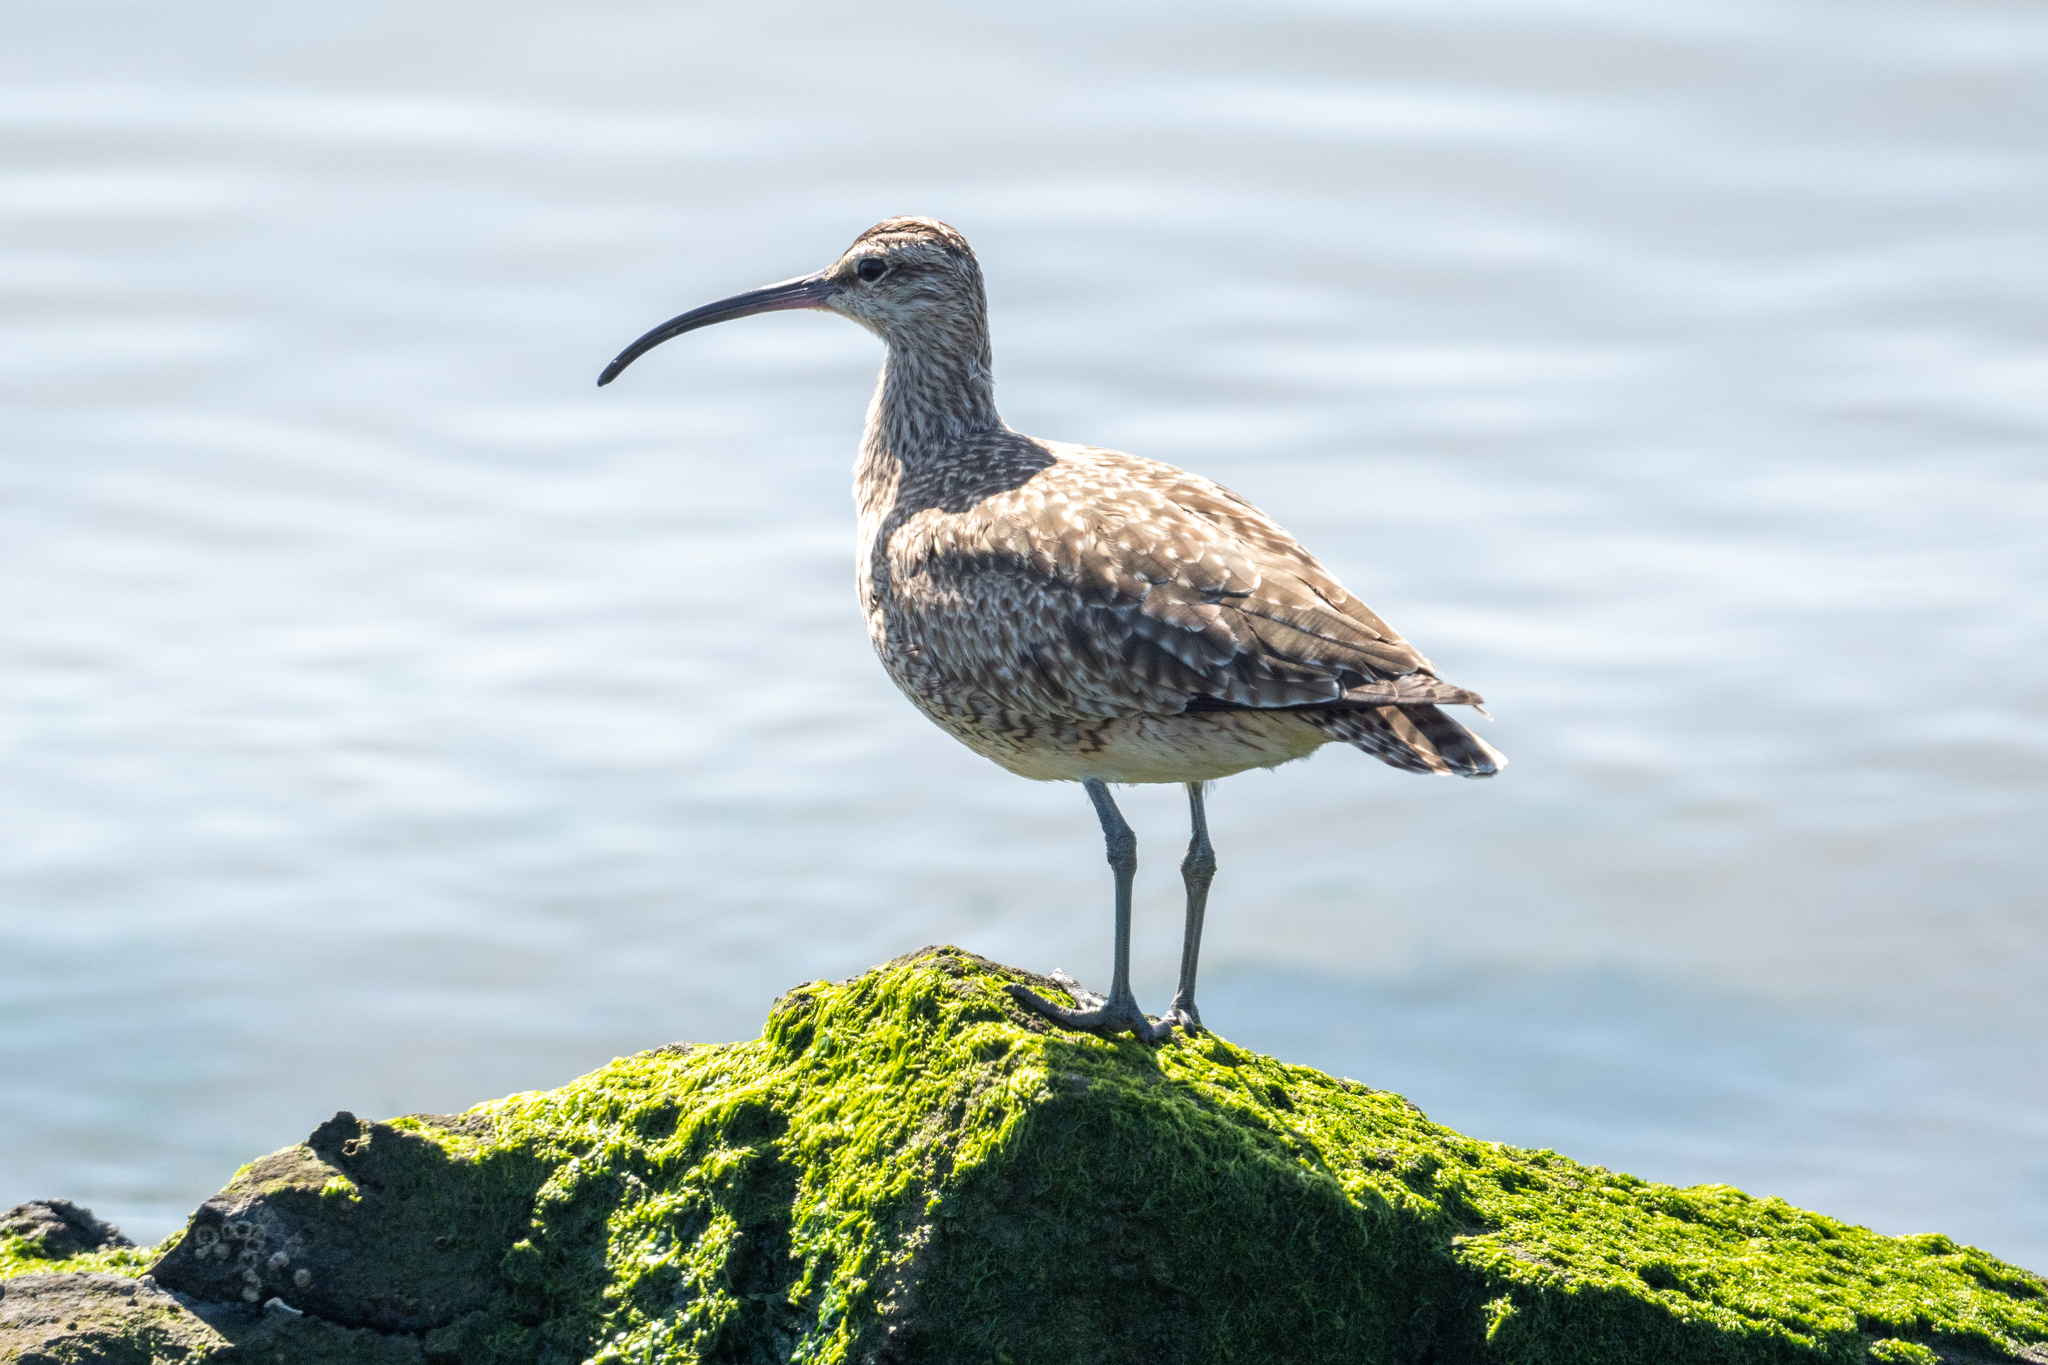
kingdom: Animalia
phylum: Chordata
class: Aves
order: Charadriiformes
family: Scolopacidae
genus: Numenius
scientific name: Numenius phaeopus
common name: Whimbrel
